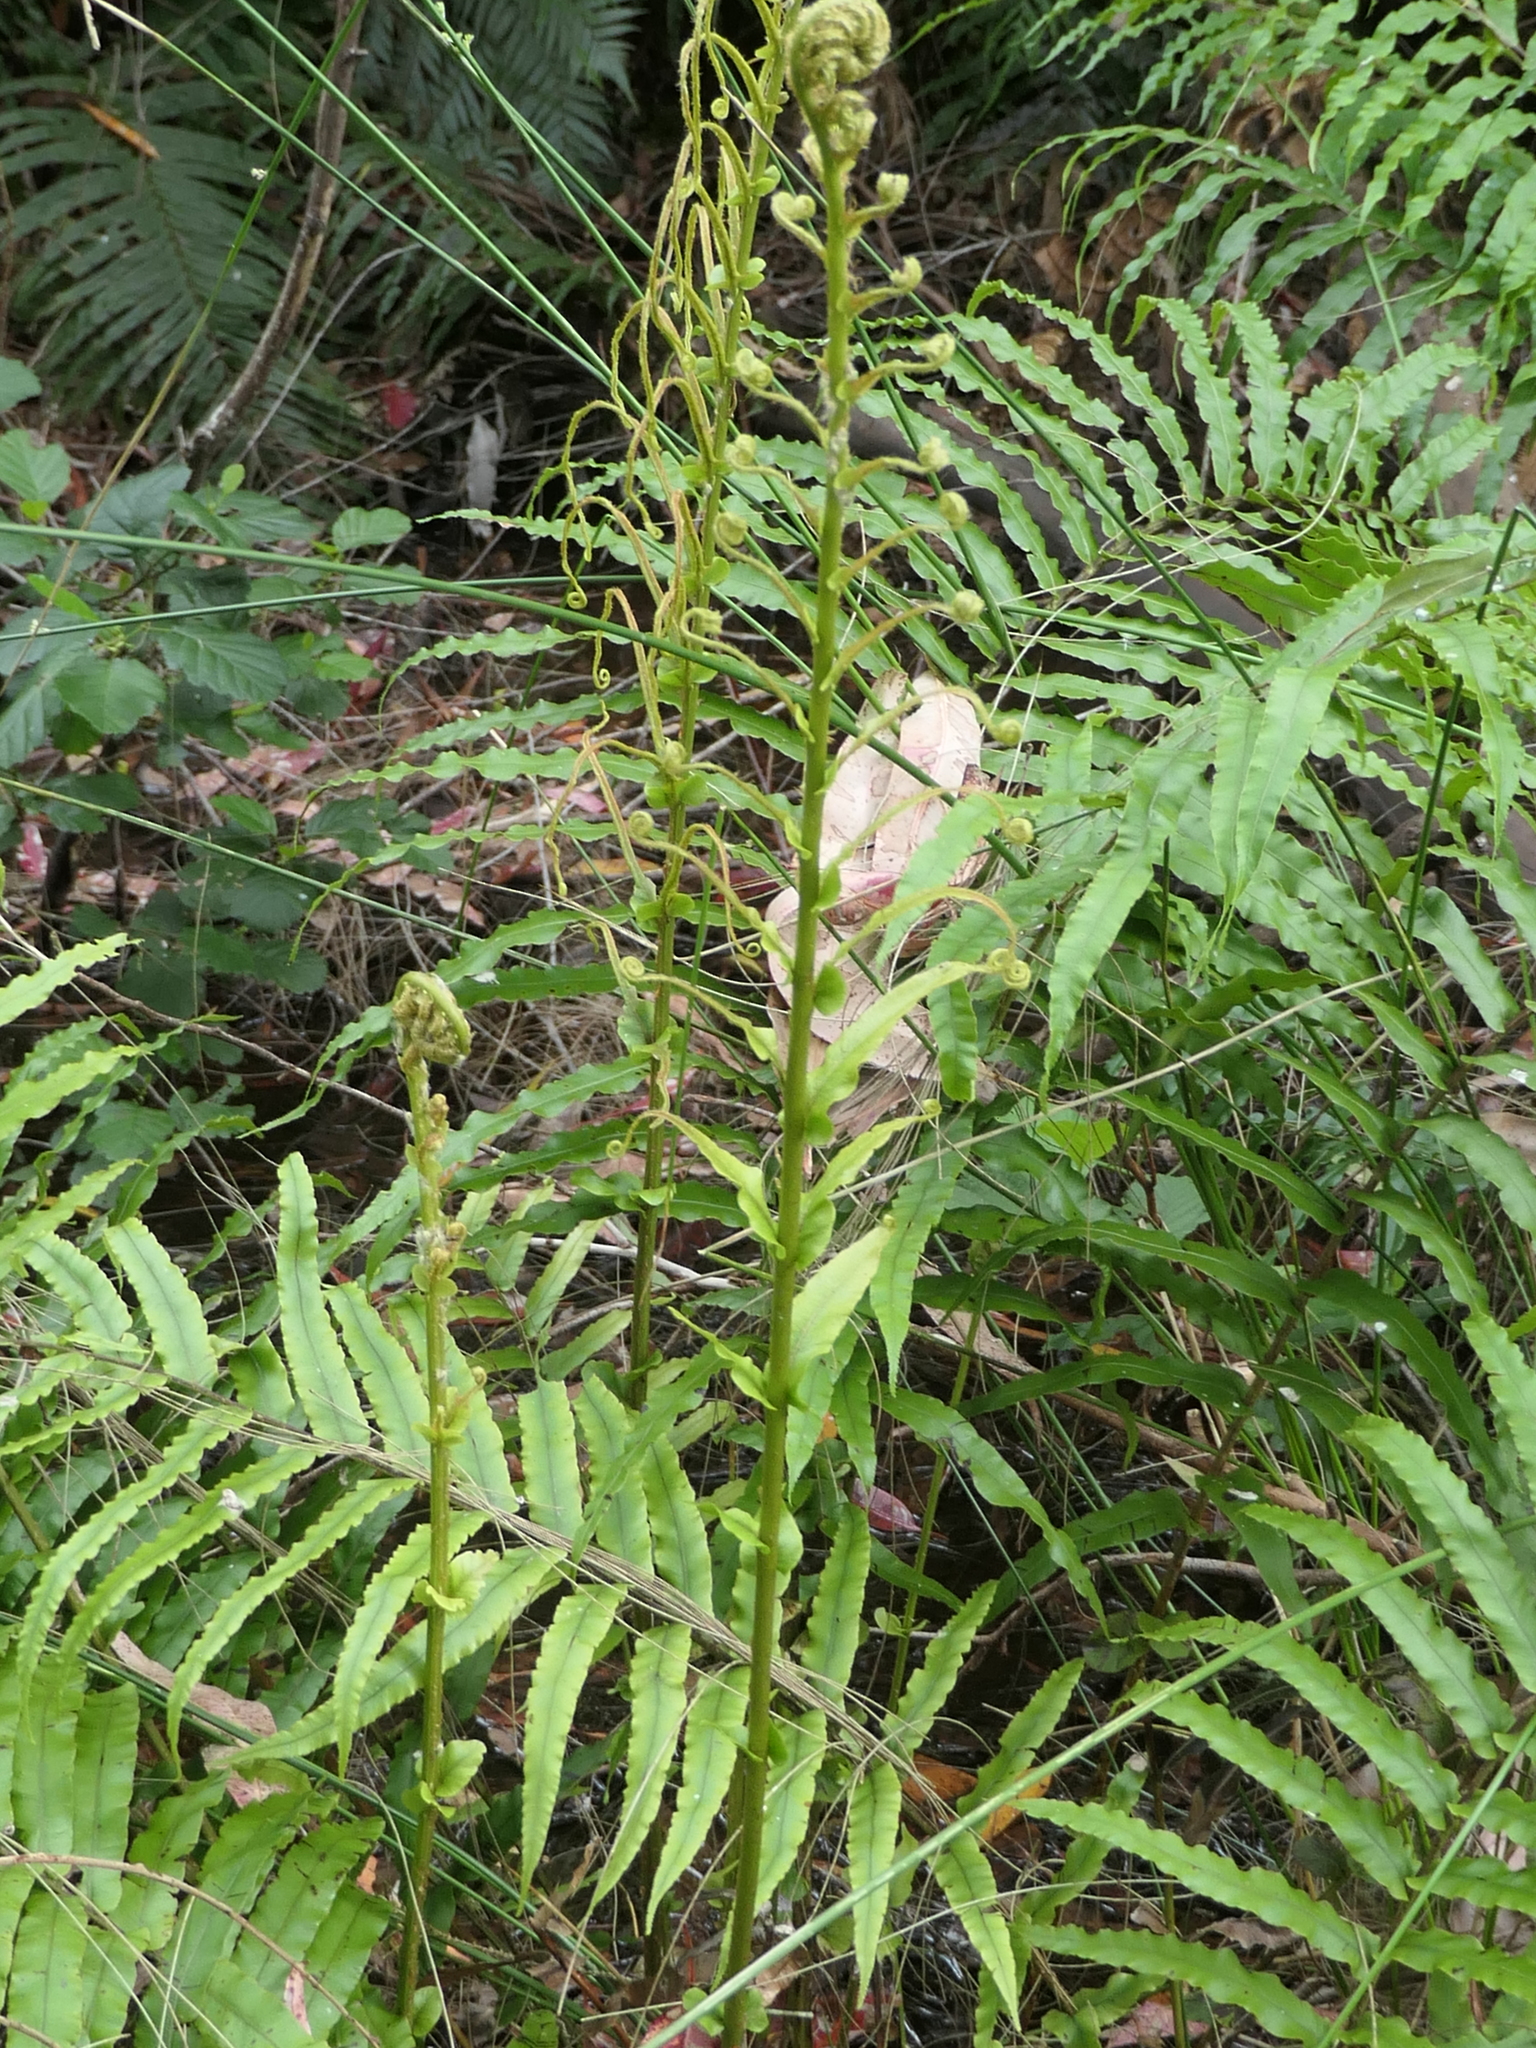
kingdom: Plantae
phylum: Tracheophyta
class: Polypodiopsida
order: Polypodiales
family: Blechnaceae
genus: Parablechnum
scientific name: Parablechnum novae-zelandiae
